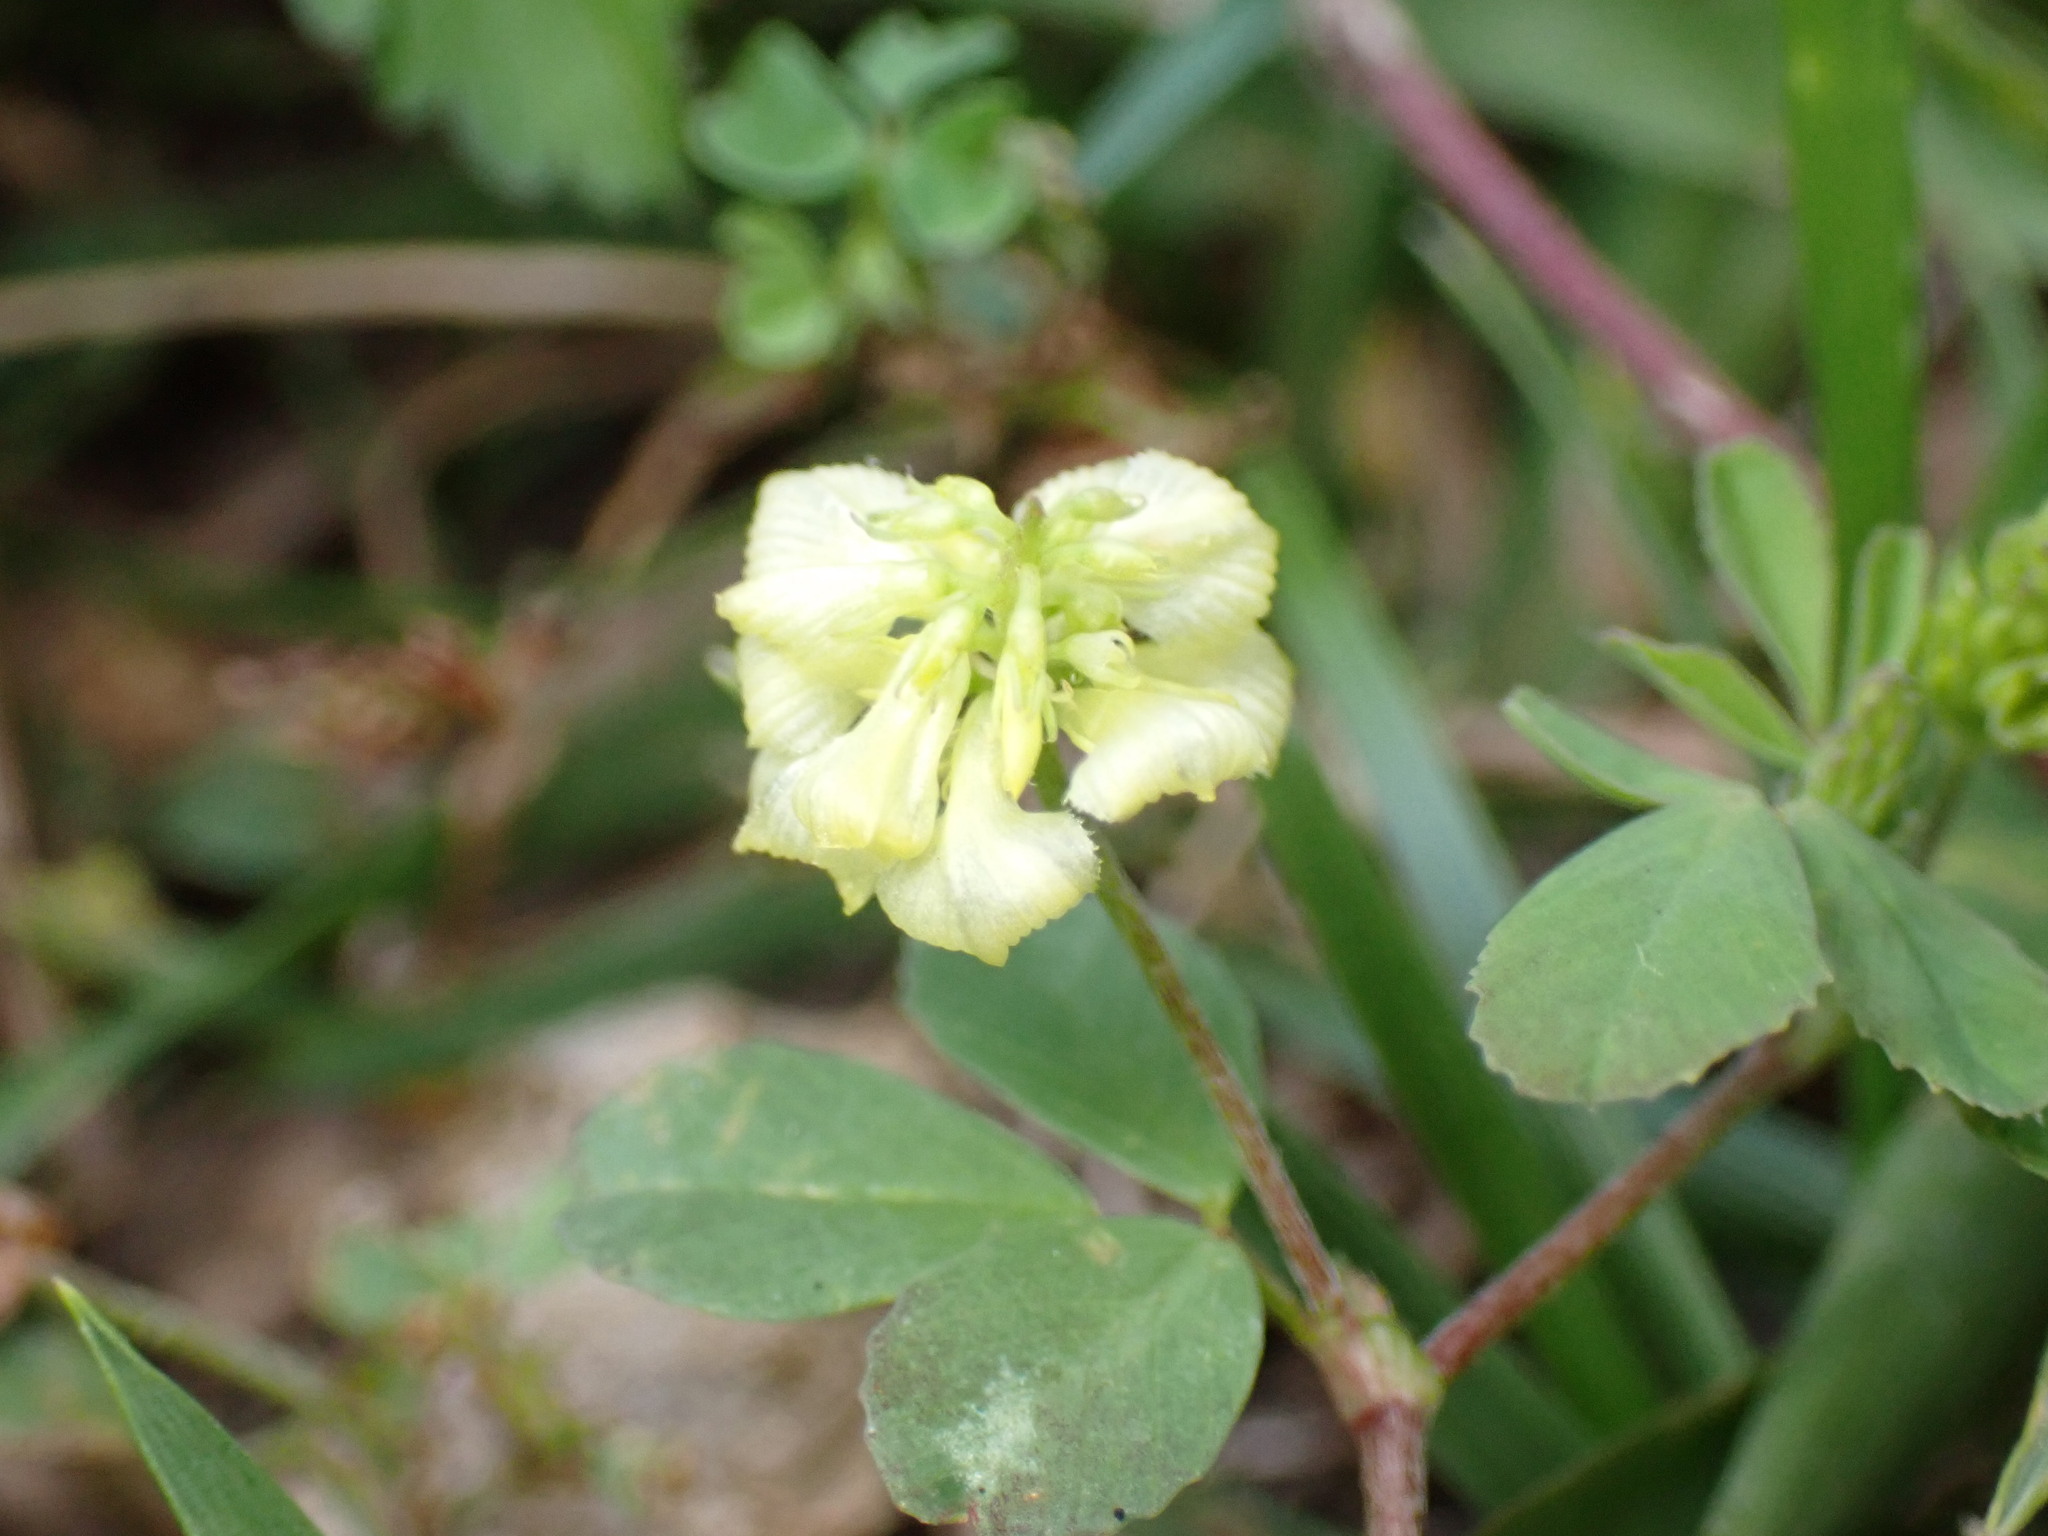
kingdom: Plantae
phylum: Tracheophyta
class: Magnoliopsida
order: Fabales
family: Fabaceae
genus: Trifolium
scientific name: Trifolium campestre
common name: Field clover
